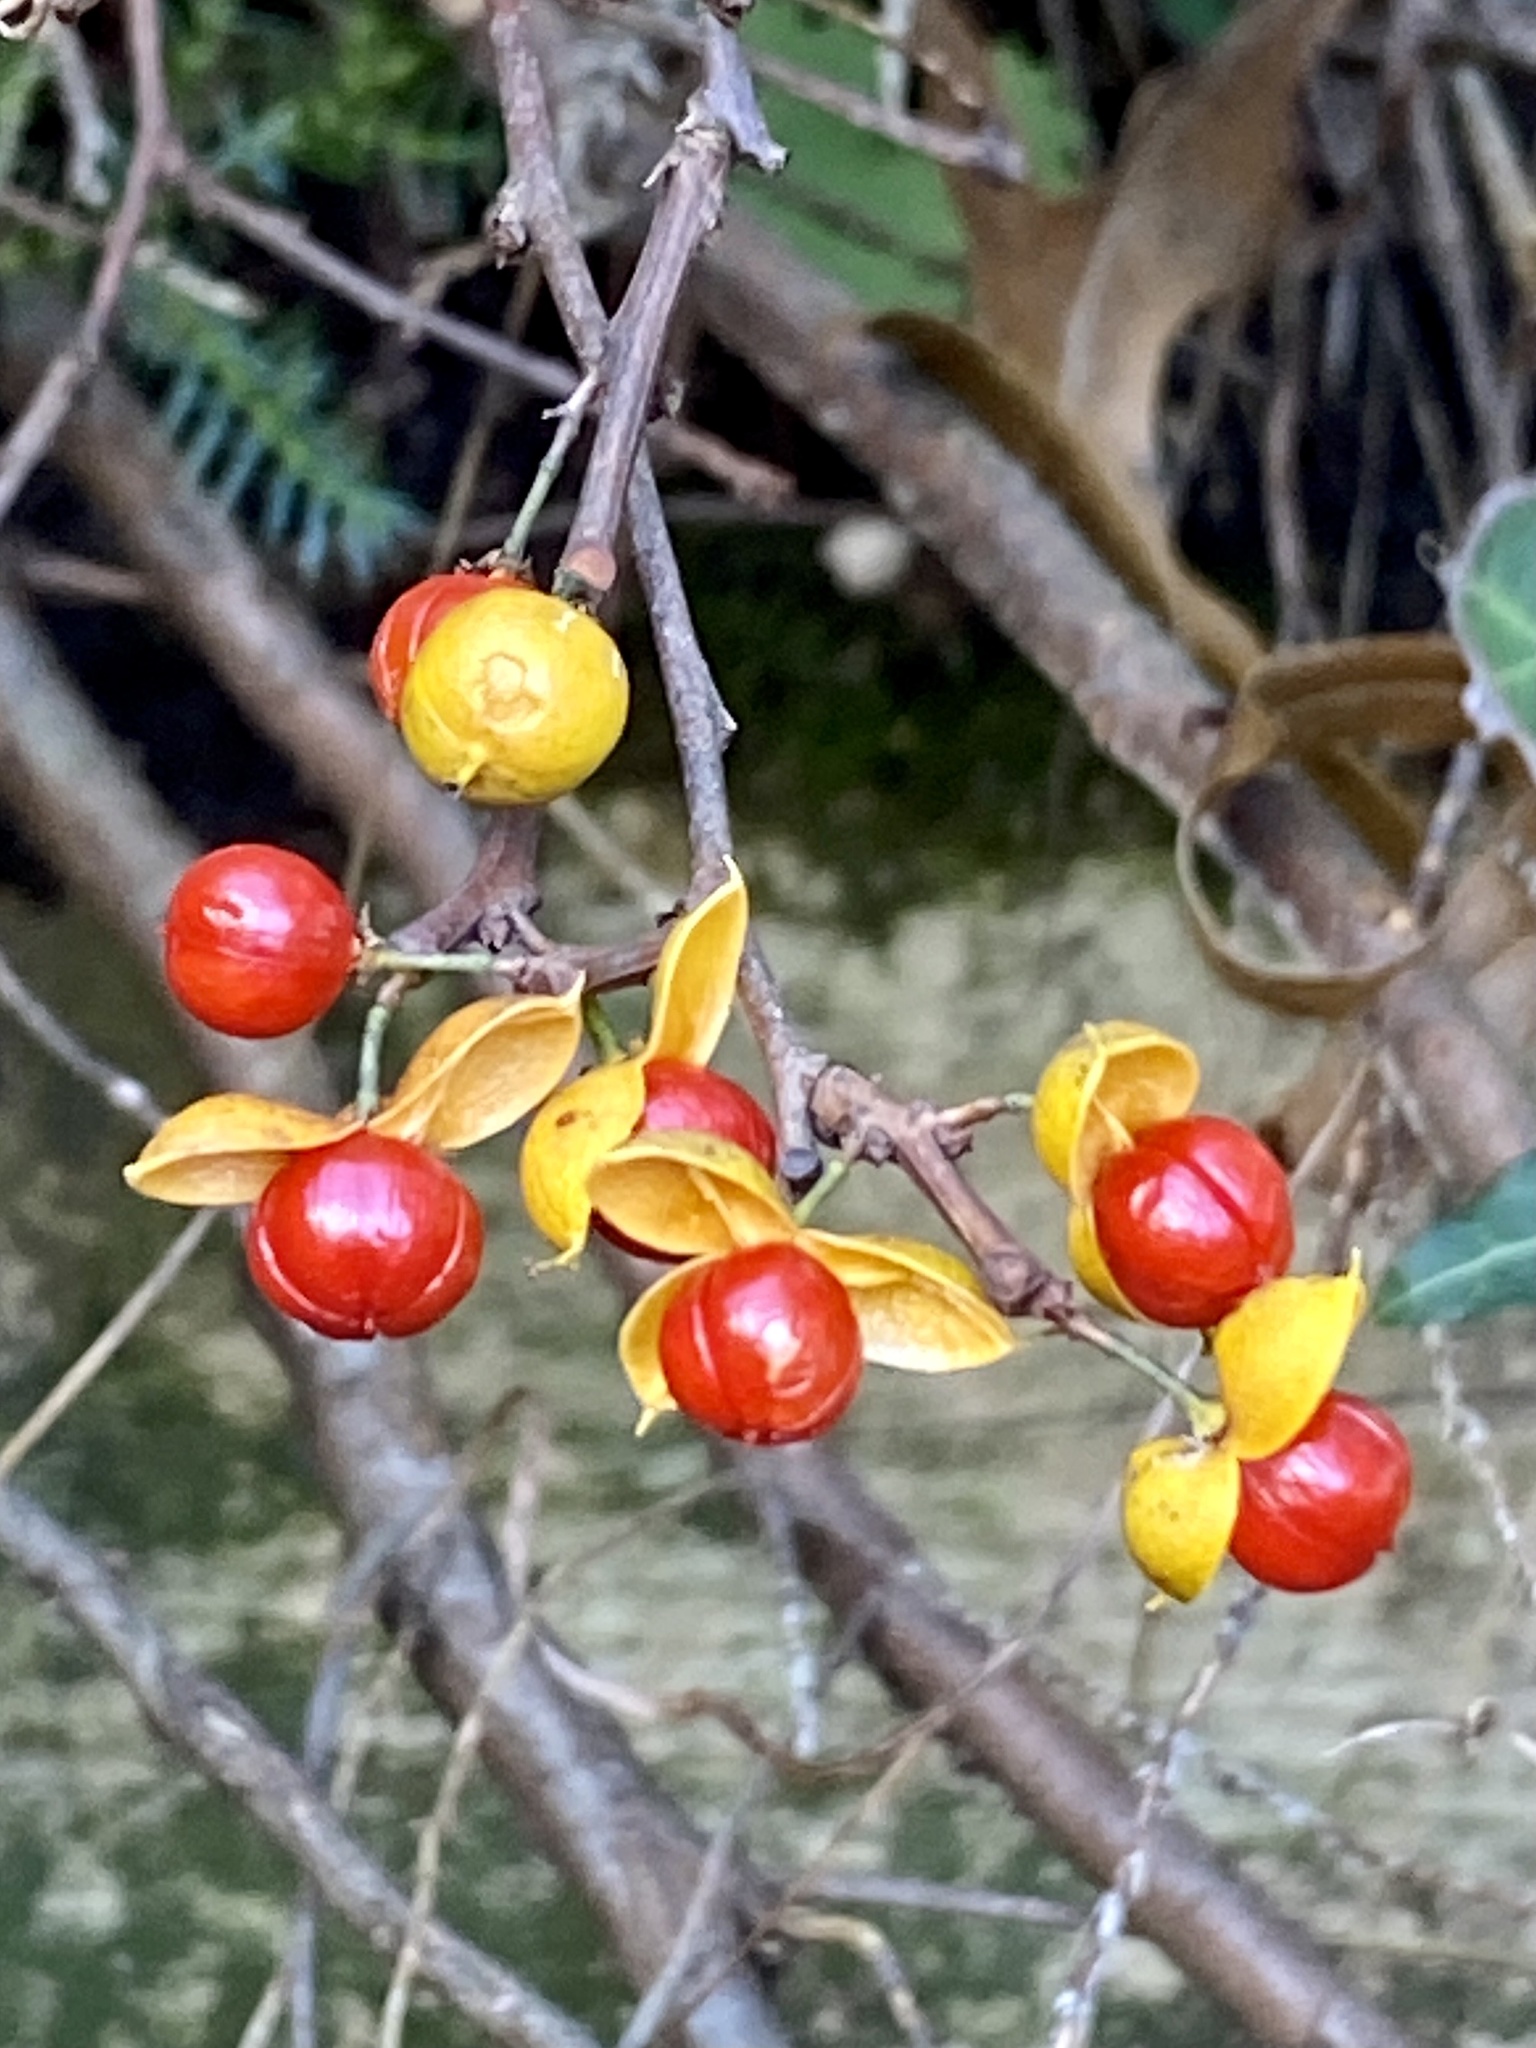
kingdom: Plantae
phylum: Tracheophyta
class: Magnoliopsida
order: Celastrales
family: Celastraceae
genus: Celastrus
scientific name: Celastrus orbiculatus
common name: Oriental bittersweet
